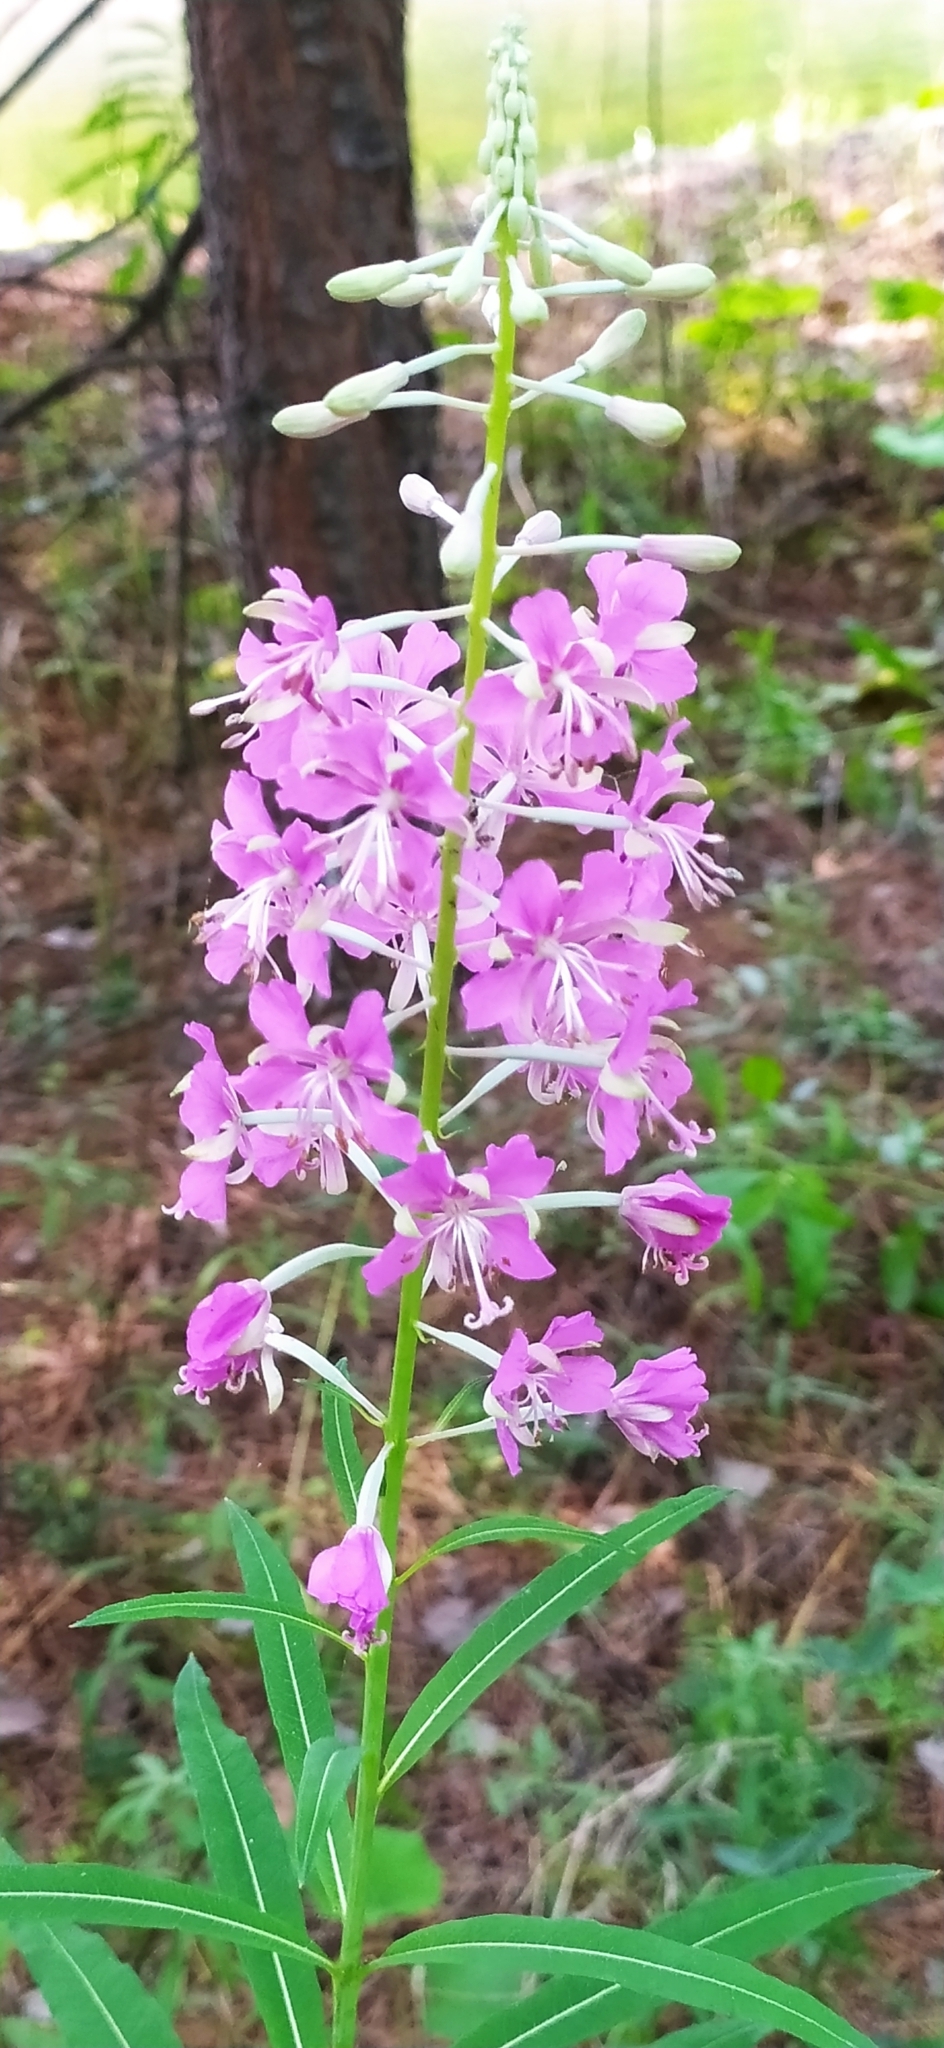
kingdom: Plantae
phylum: Tracheophyta
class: Magnoliopsida
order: Myrtales
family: Onagraceae
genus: Chamaenerion
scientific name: Chamaenerion angustifolium
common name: Fireweed
